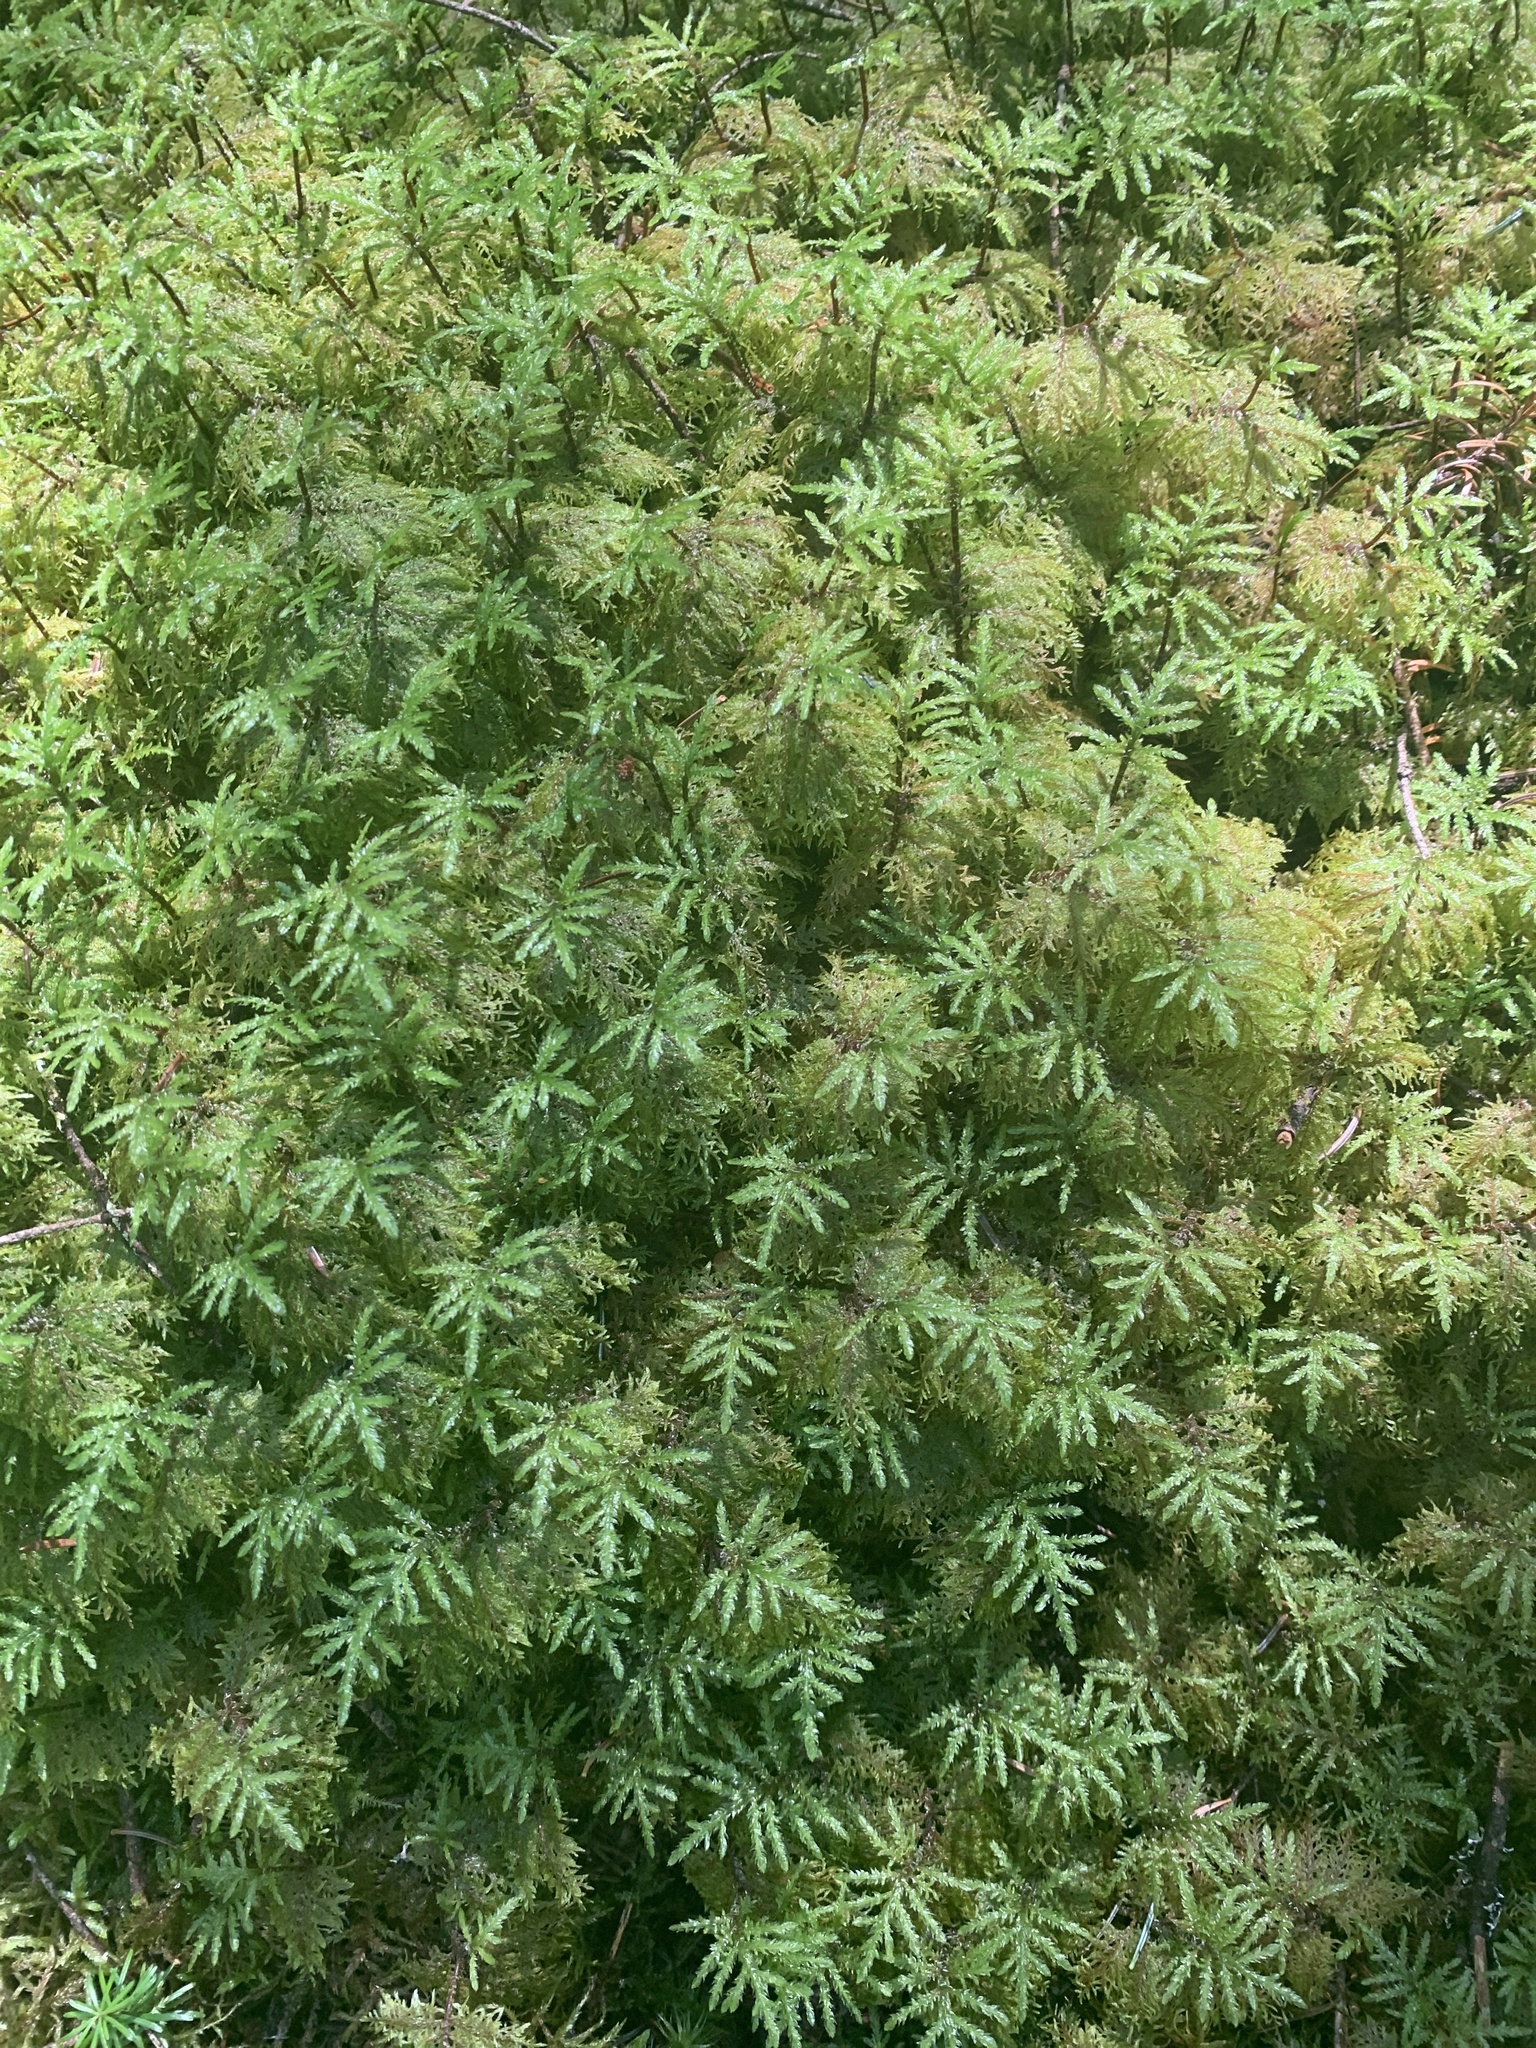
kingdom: Plantae
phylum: Bryophyta
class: Bryopsida
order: Hypnales
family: Hylocomiaceae
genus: Hylocomium
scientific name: Hylocomium splendens
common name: Stairstep moss
